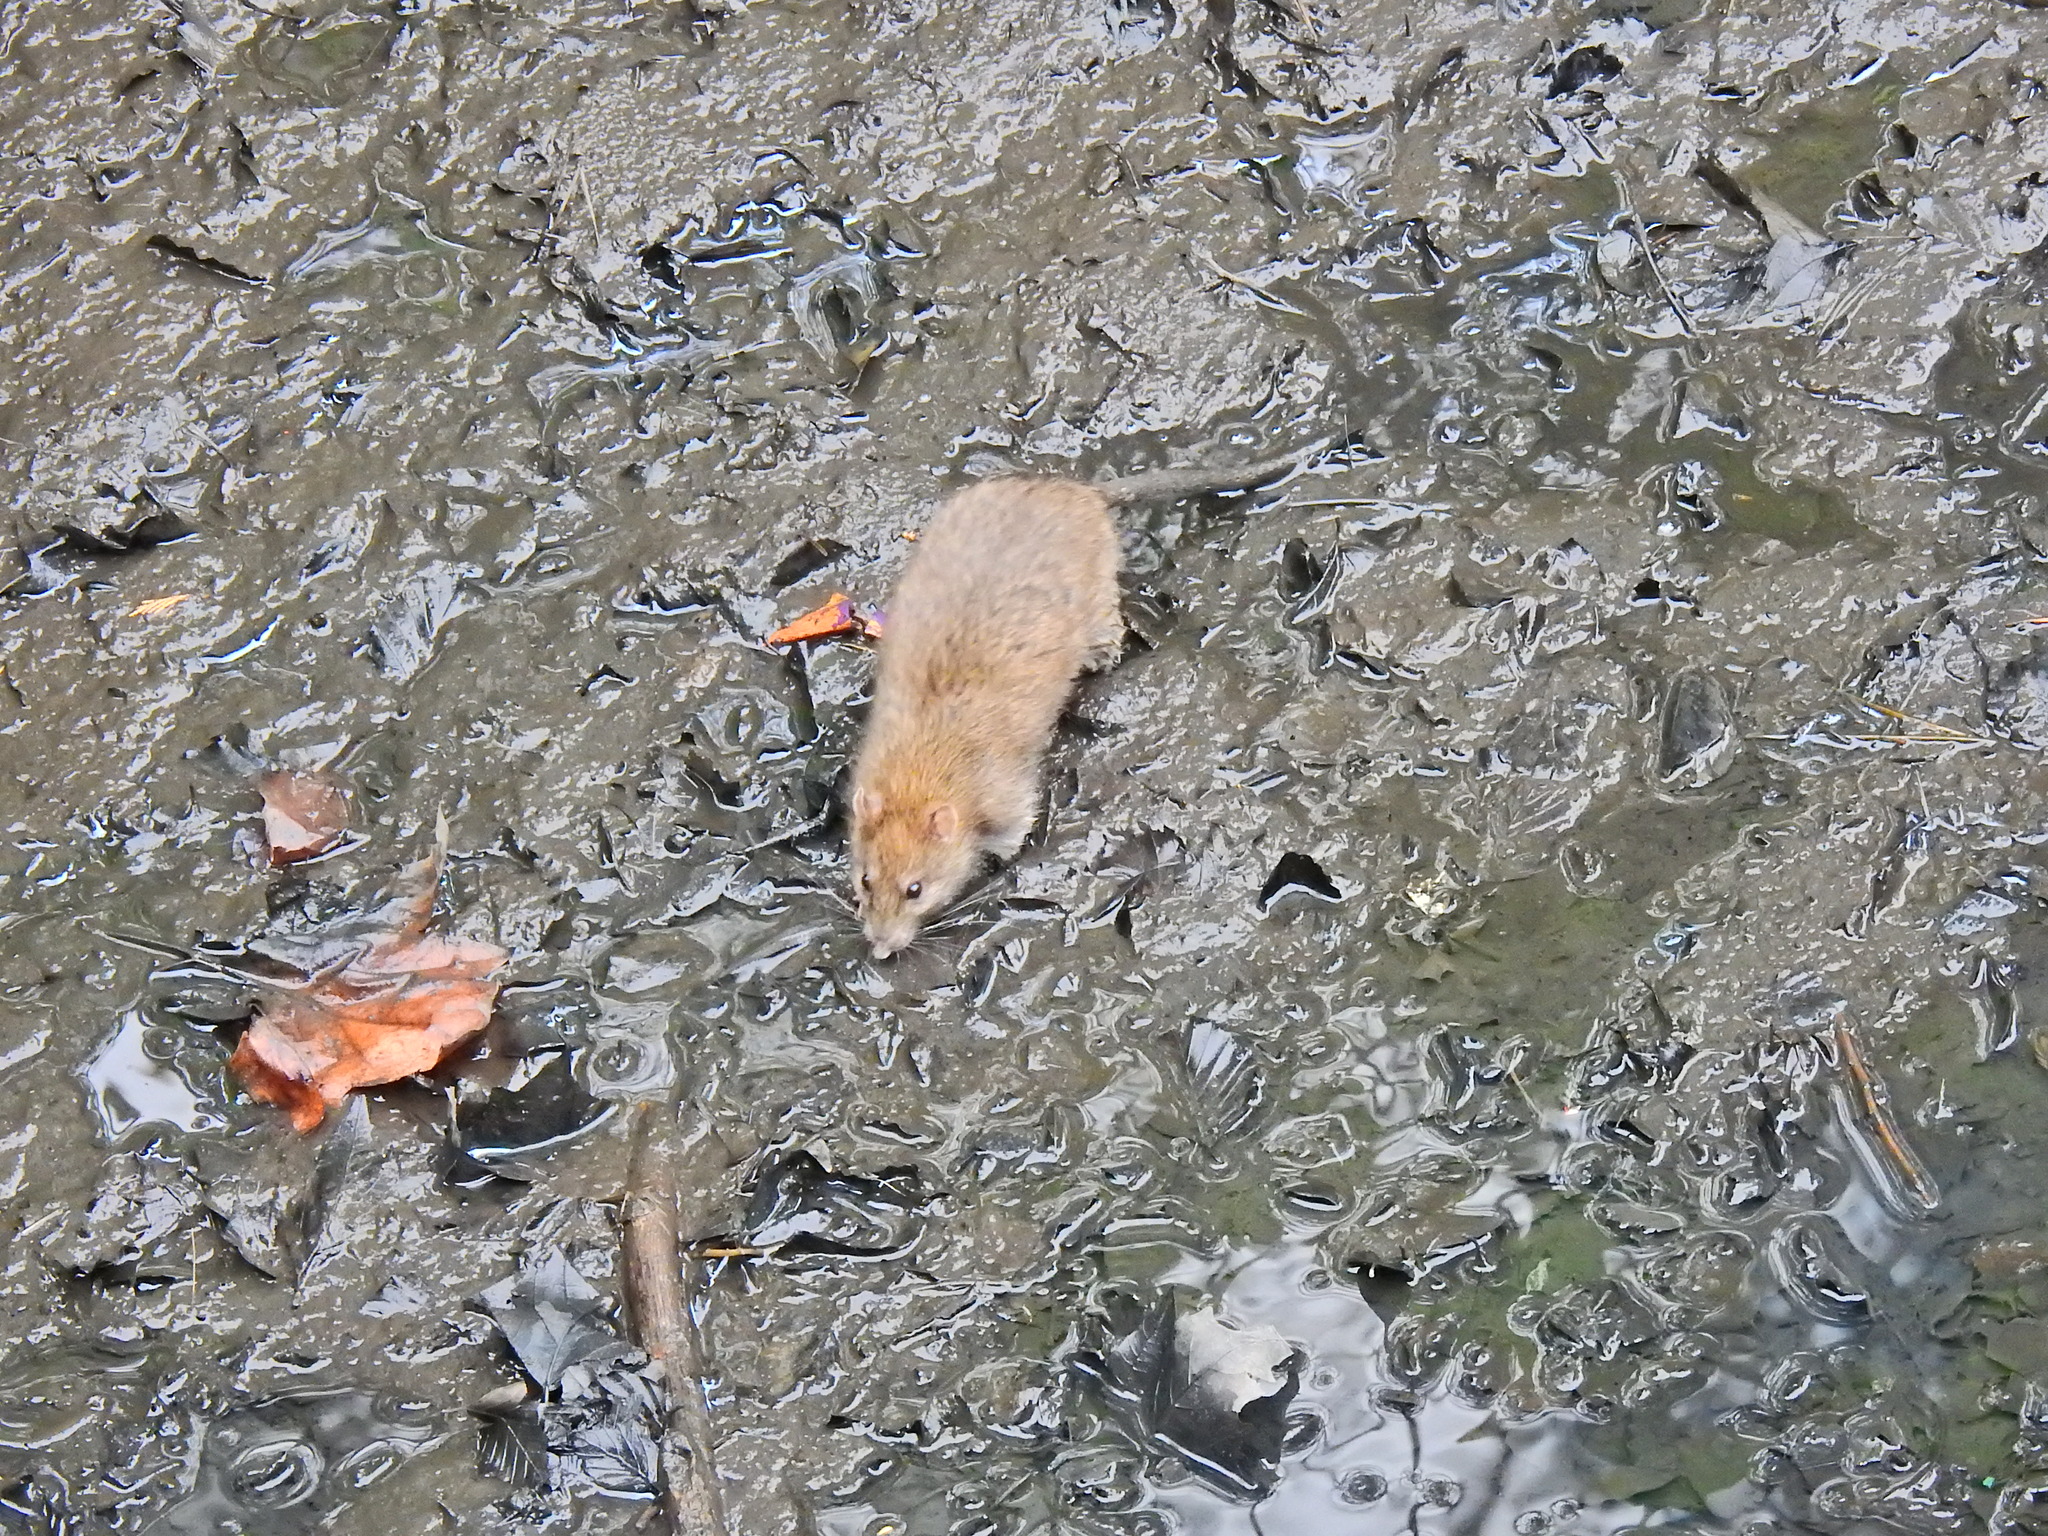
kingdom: Animalia
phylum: Chordata
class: Mammalia
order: Rodentia
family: Muridae
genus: Rattus
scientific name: Rattus norvegicus
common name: Brown rat
